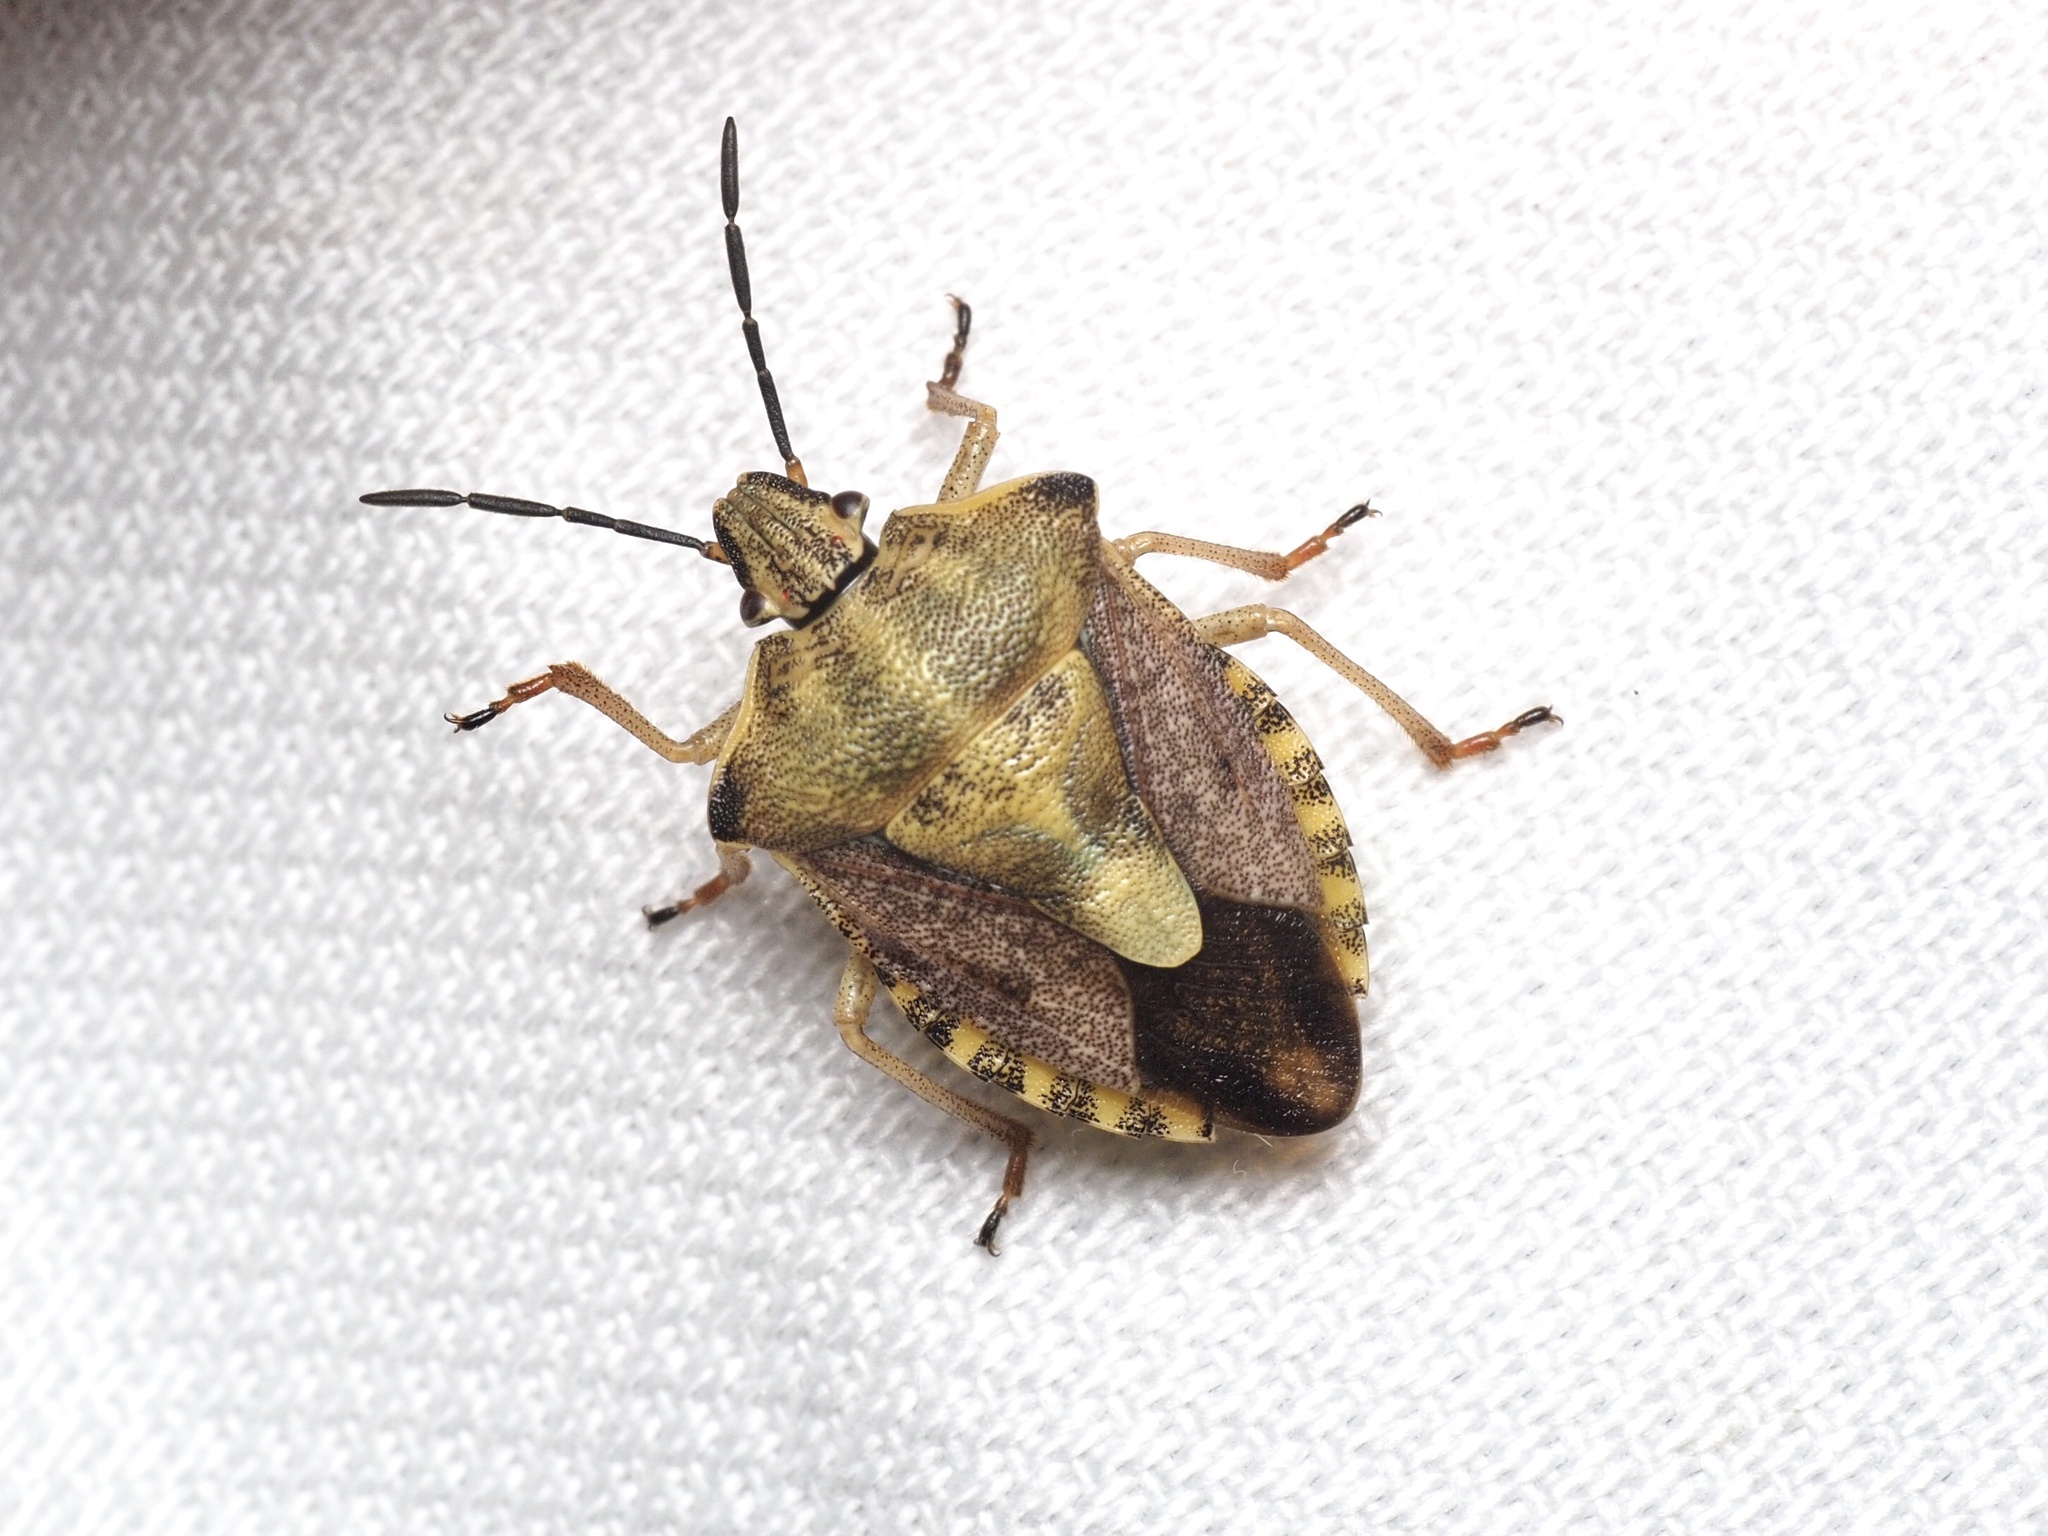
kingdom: Animalia
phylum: Arthropoda
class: Insecta
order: Hemiptera
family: Pentatomidae
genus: Carpocoris
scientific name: Carpocoris purpureipennis
